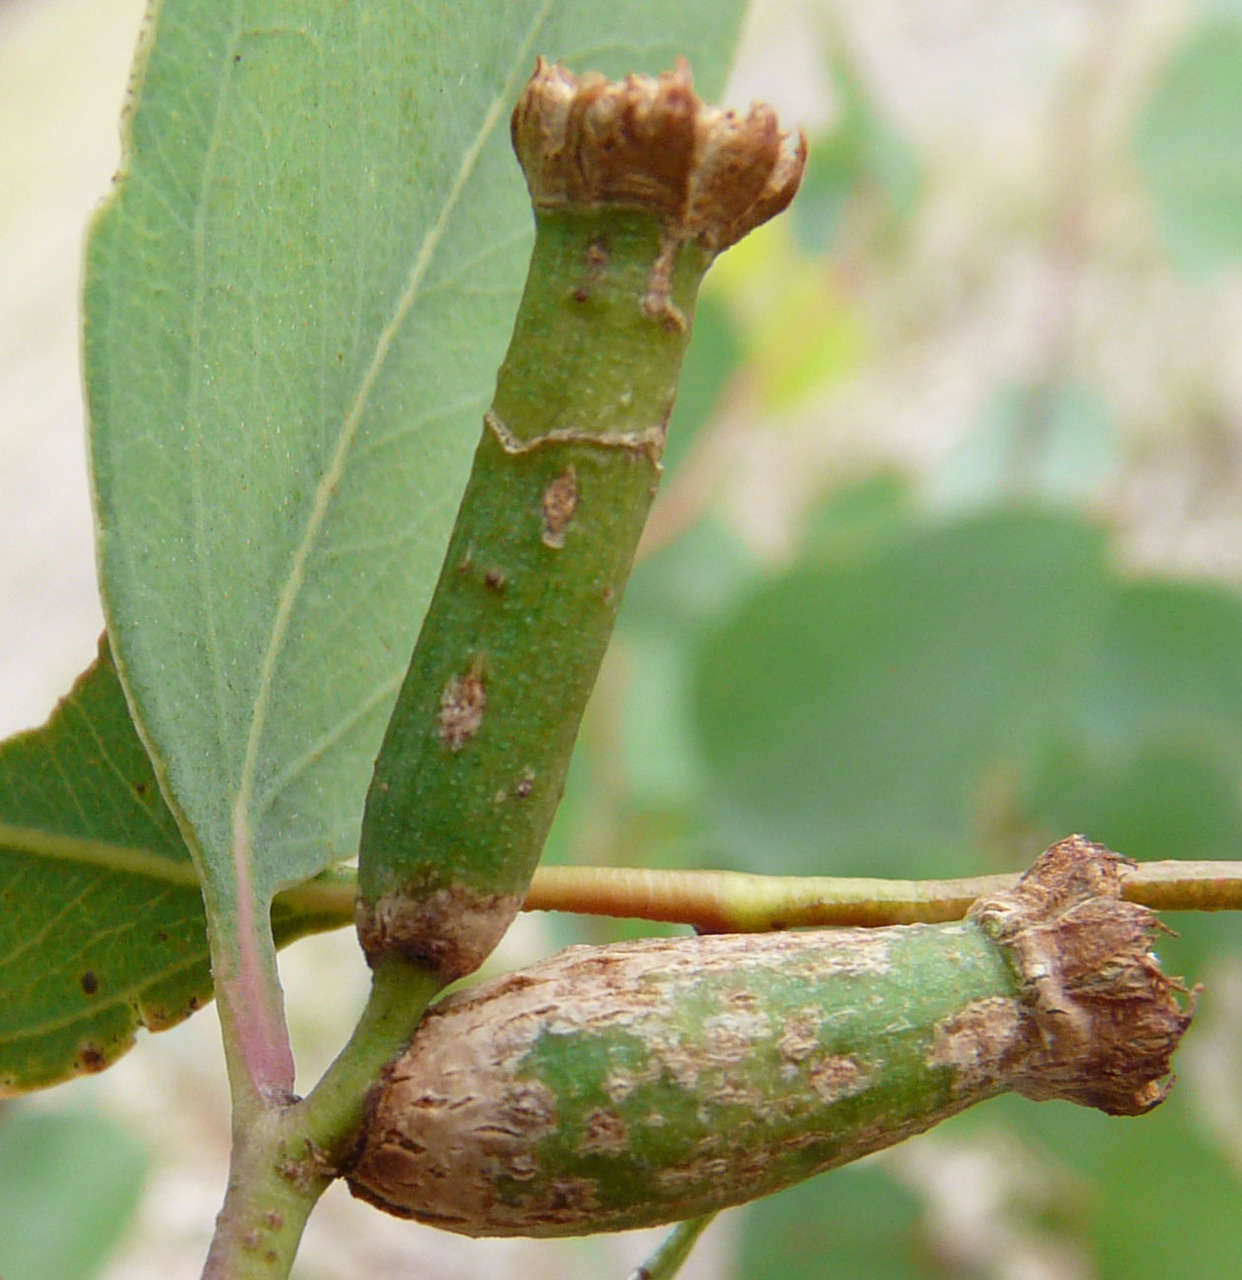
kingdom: Animalia
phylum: Arthropoda
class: Insecta
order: Hemiptera
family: Eriococcidae
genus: Apiomorpha
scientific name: Apiomorpha urnalis
